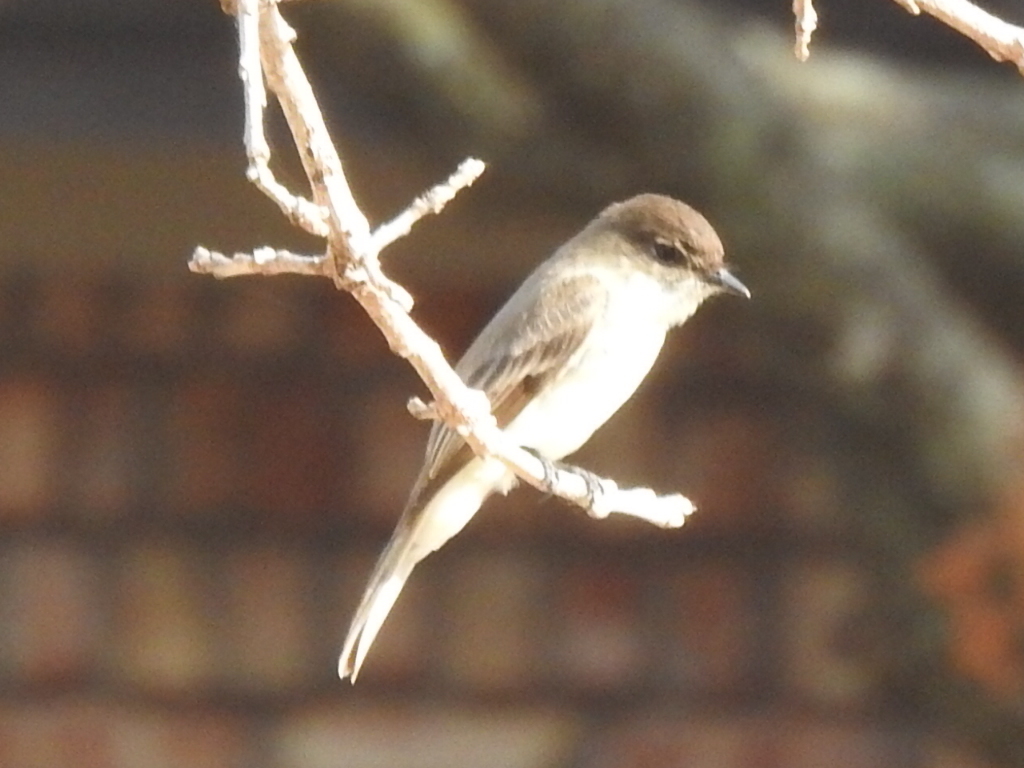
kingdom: Animalia
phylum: Chordata
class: Aves
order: Passeriformes
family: Tyrannidae
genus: Sayornis
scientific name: Sayornis phoebe
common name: Eastern phoebe
